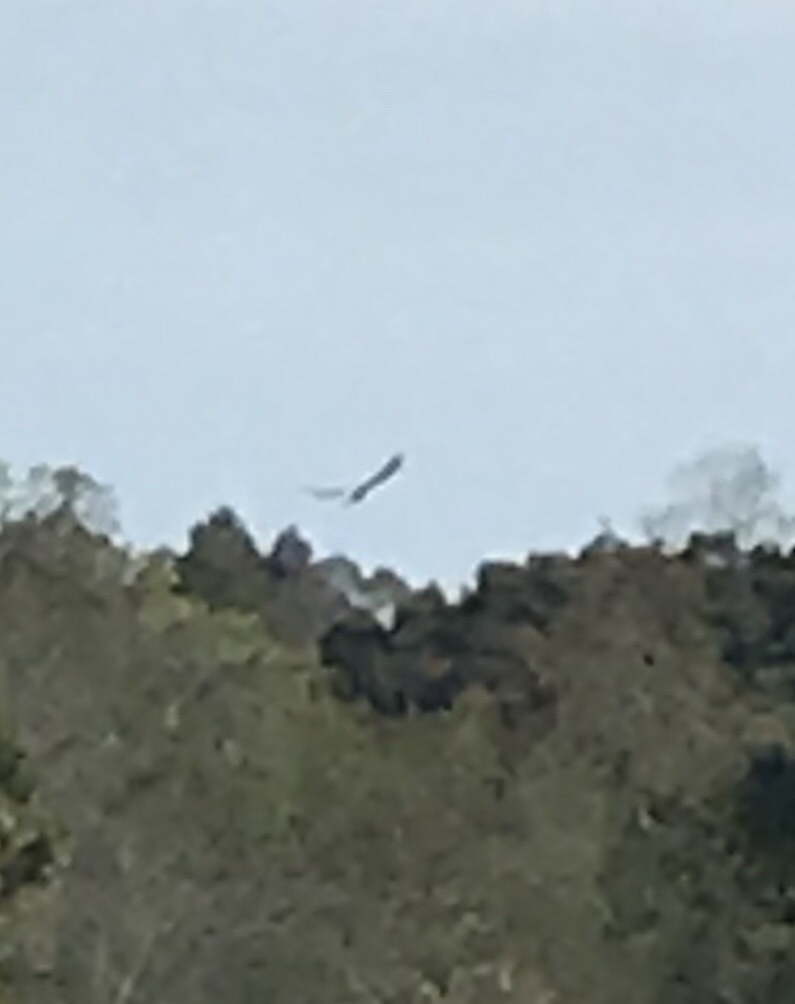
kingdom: Animalia
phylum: Chordata
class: Aves
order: Accipitriformes
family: Accipitridae
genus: Haliaeetus
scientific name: Haliaeetus leucocephalus
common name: Bald eagle
